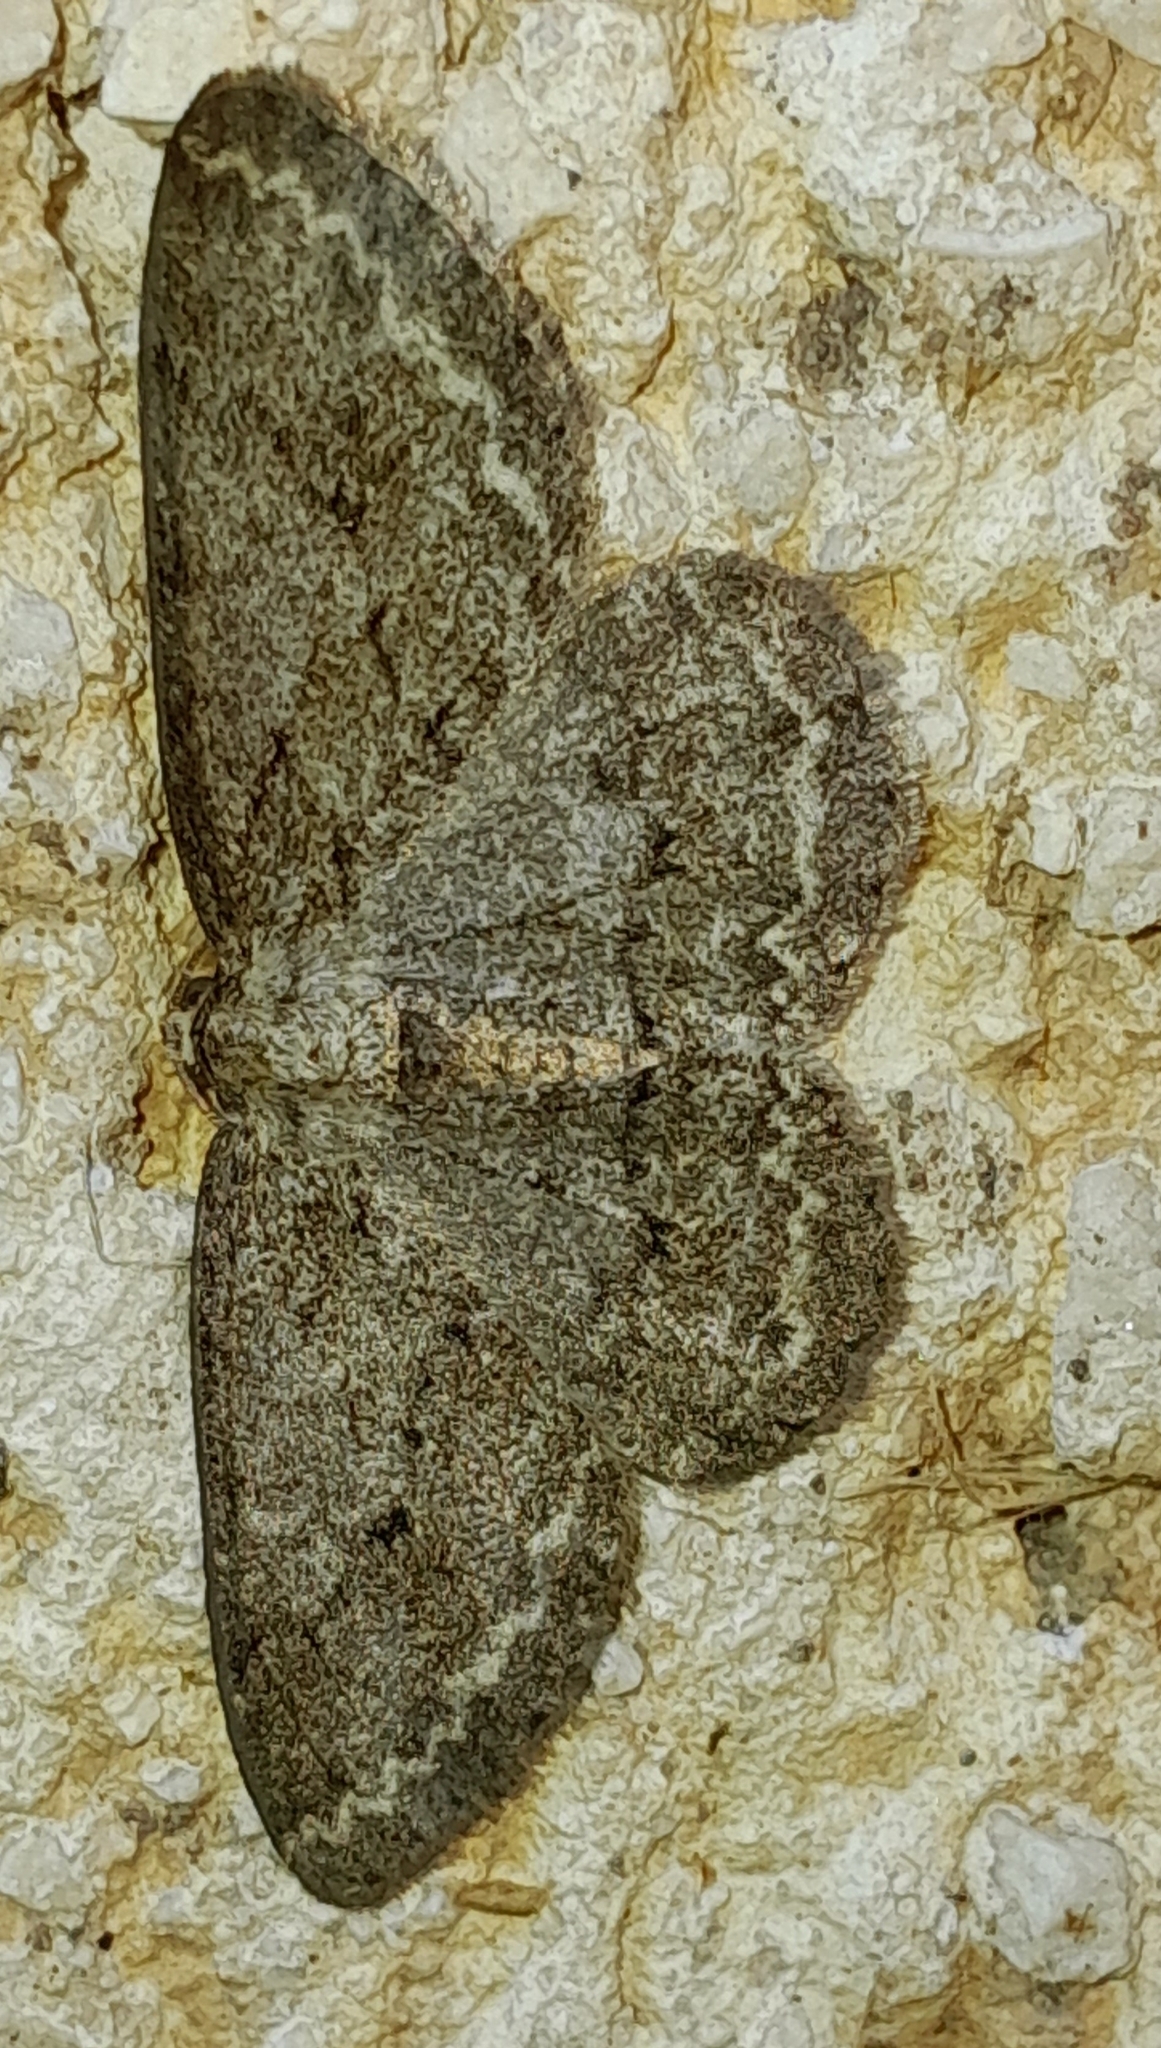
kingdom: Animalia
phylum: Arthropoda
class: Insecta
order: Lepidoptera
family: Geometridae
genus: Ectropis
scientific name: Ectropis crepuscularia
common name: Engrailed
